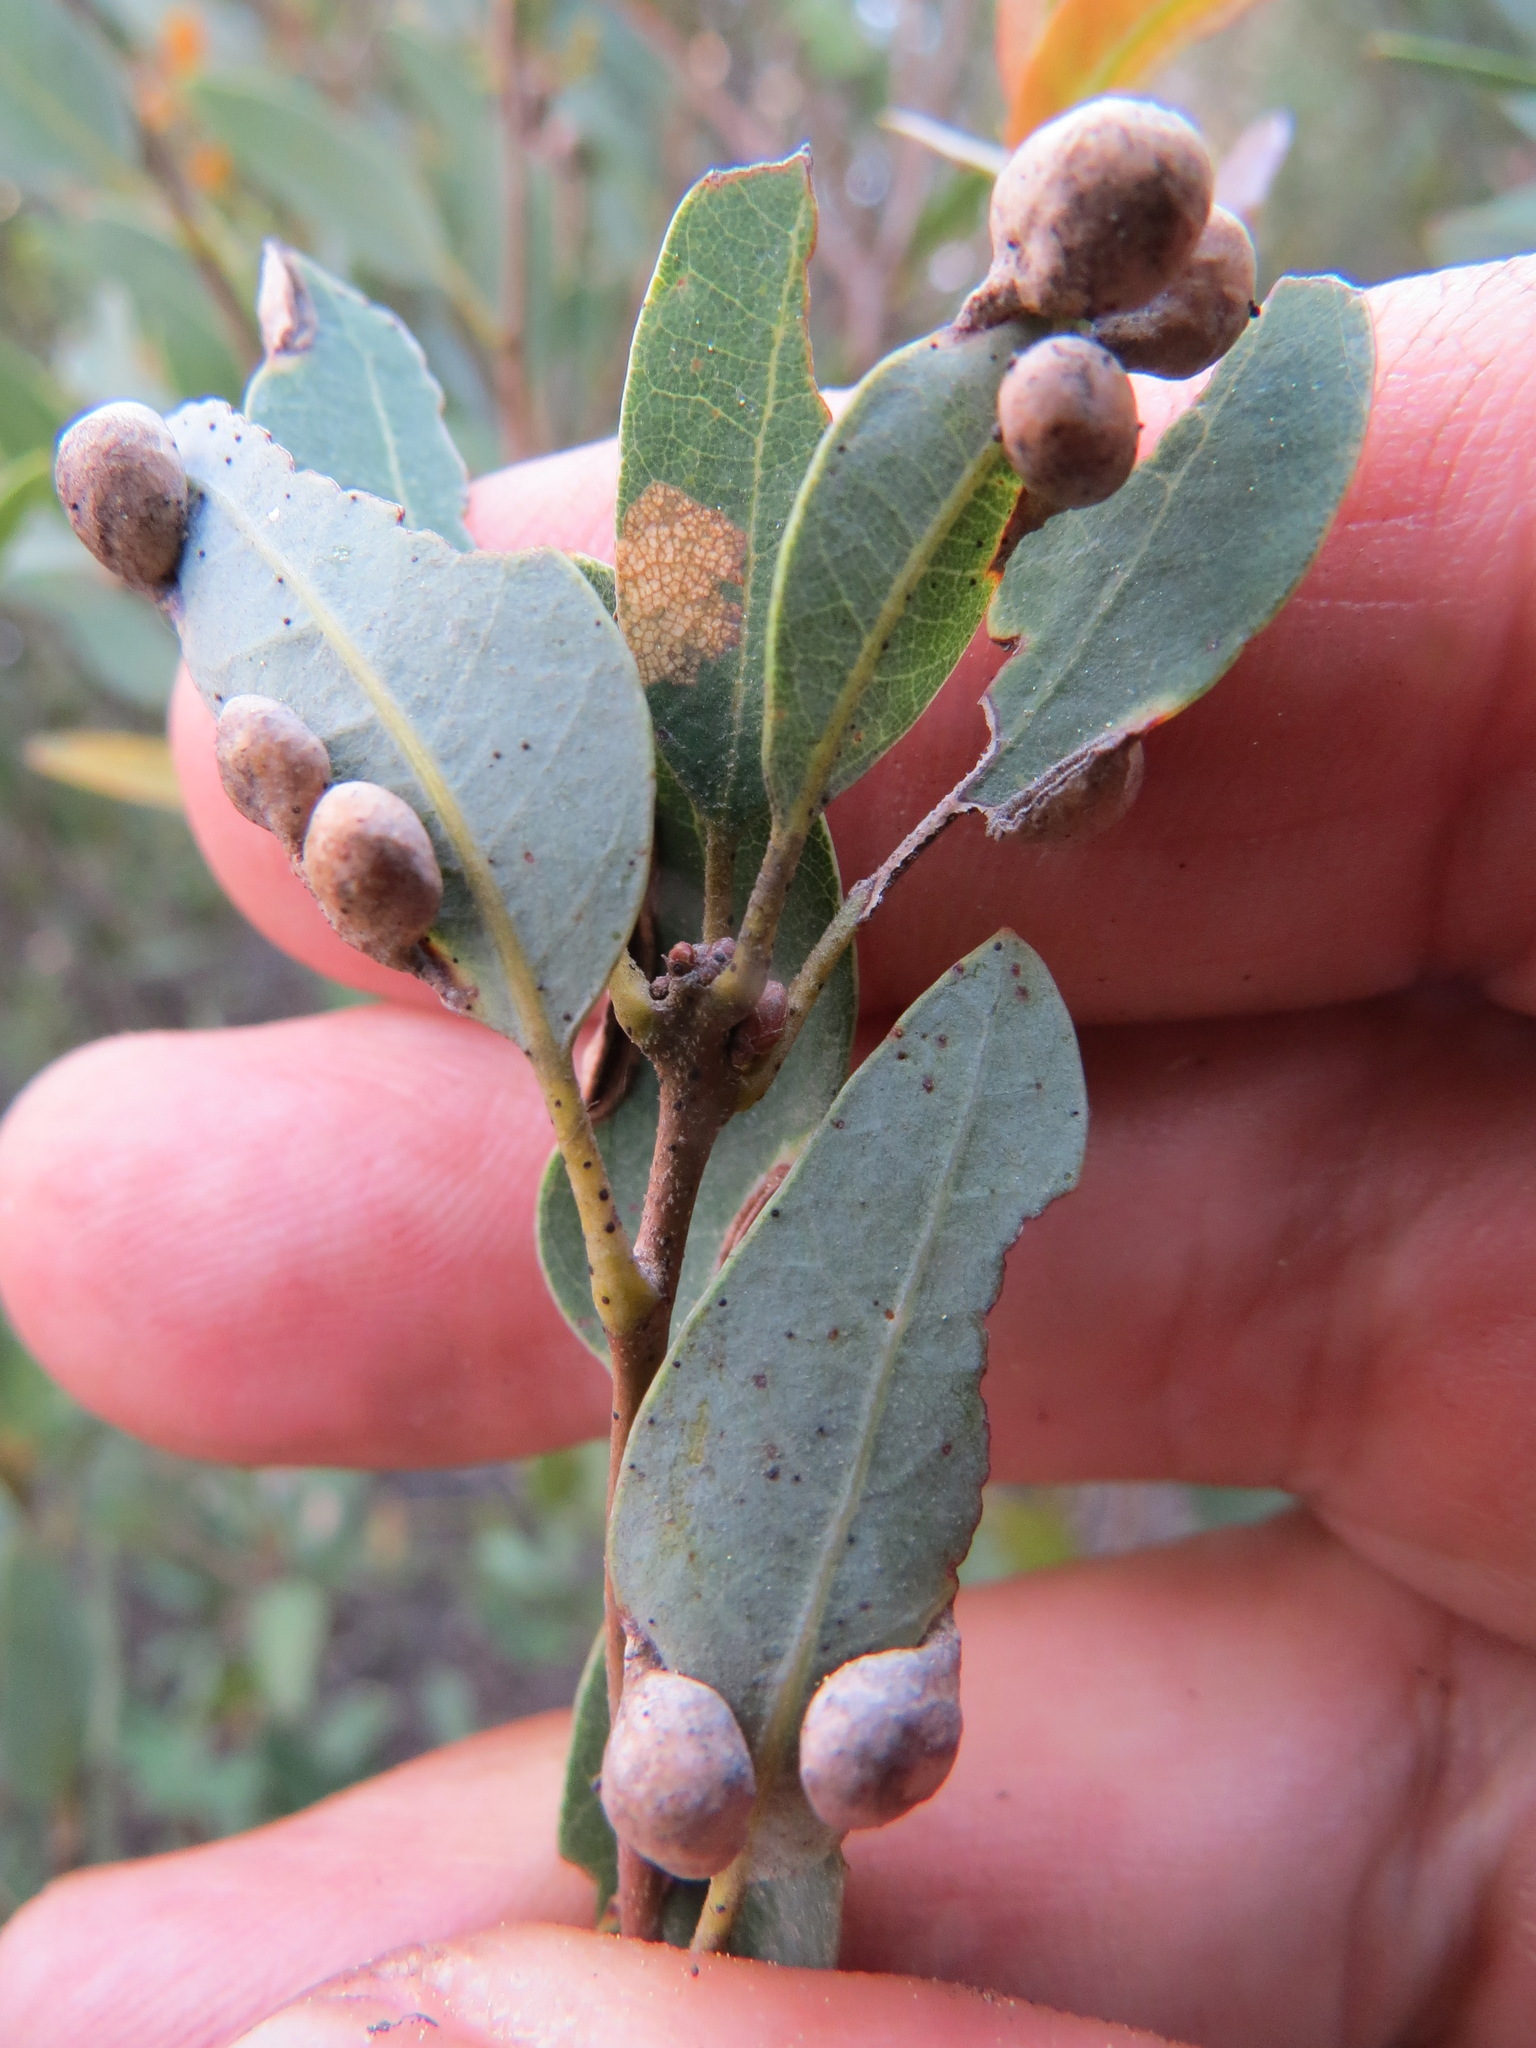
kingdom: Animalia
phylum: Arthropoda
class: Insecta
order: Diptera
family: Cecidomyiidae
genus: Dasineura
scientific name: Dasineura
